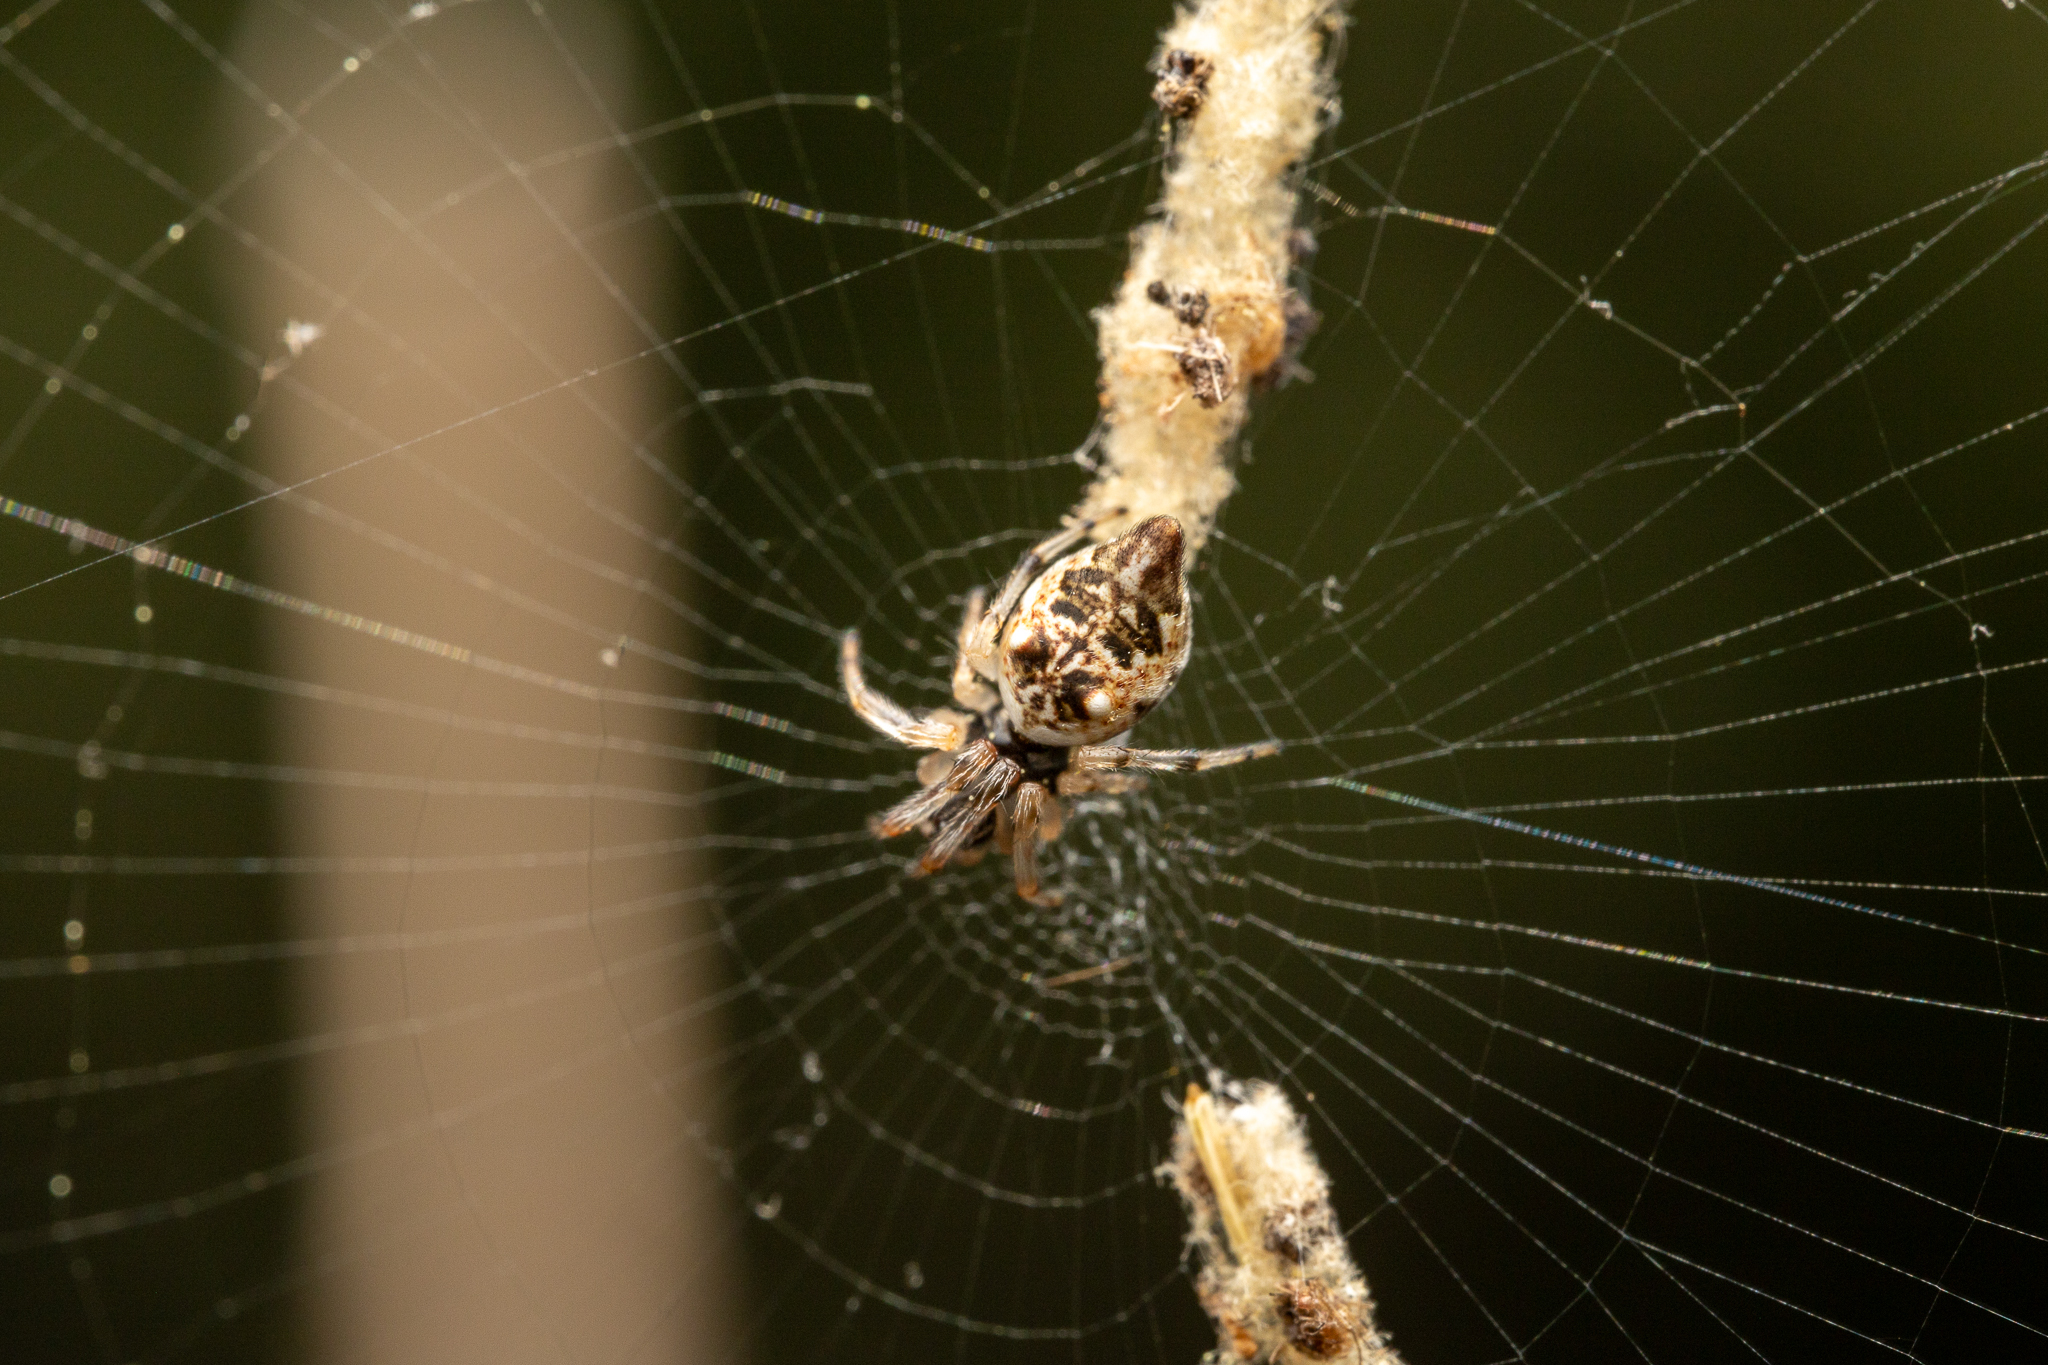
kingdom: Animalia
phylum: Arthropoda
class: Arachnida
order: Araneae
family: Araneidae
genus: Cyclosa
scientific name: Cyclosa turbinata
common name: Orb weavers
